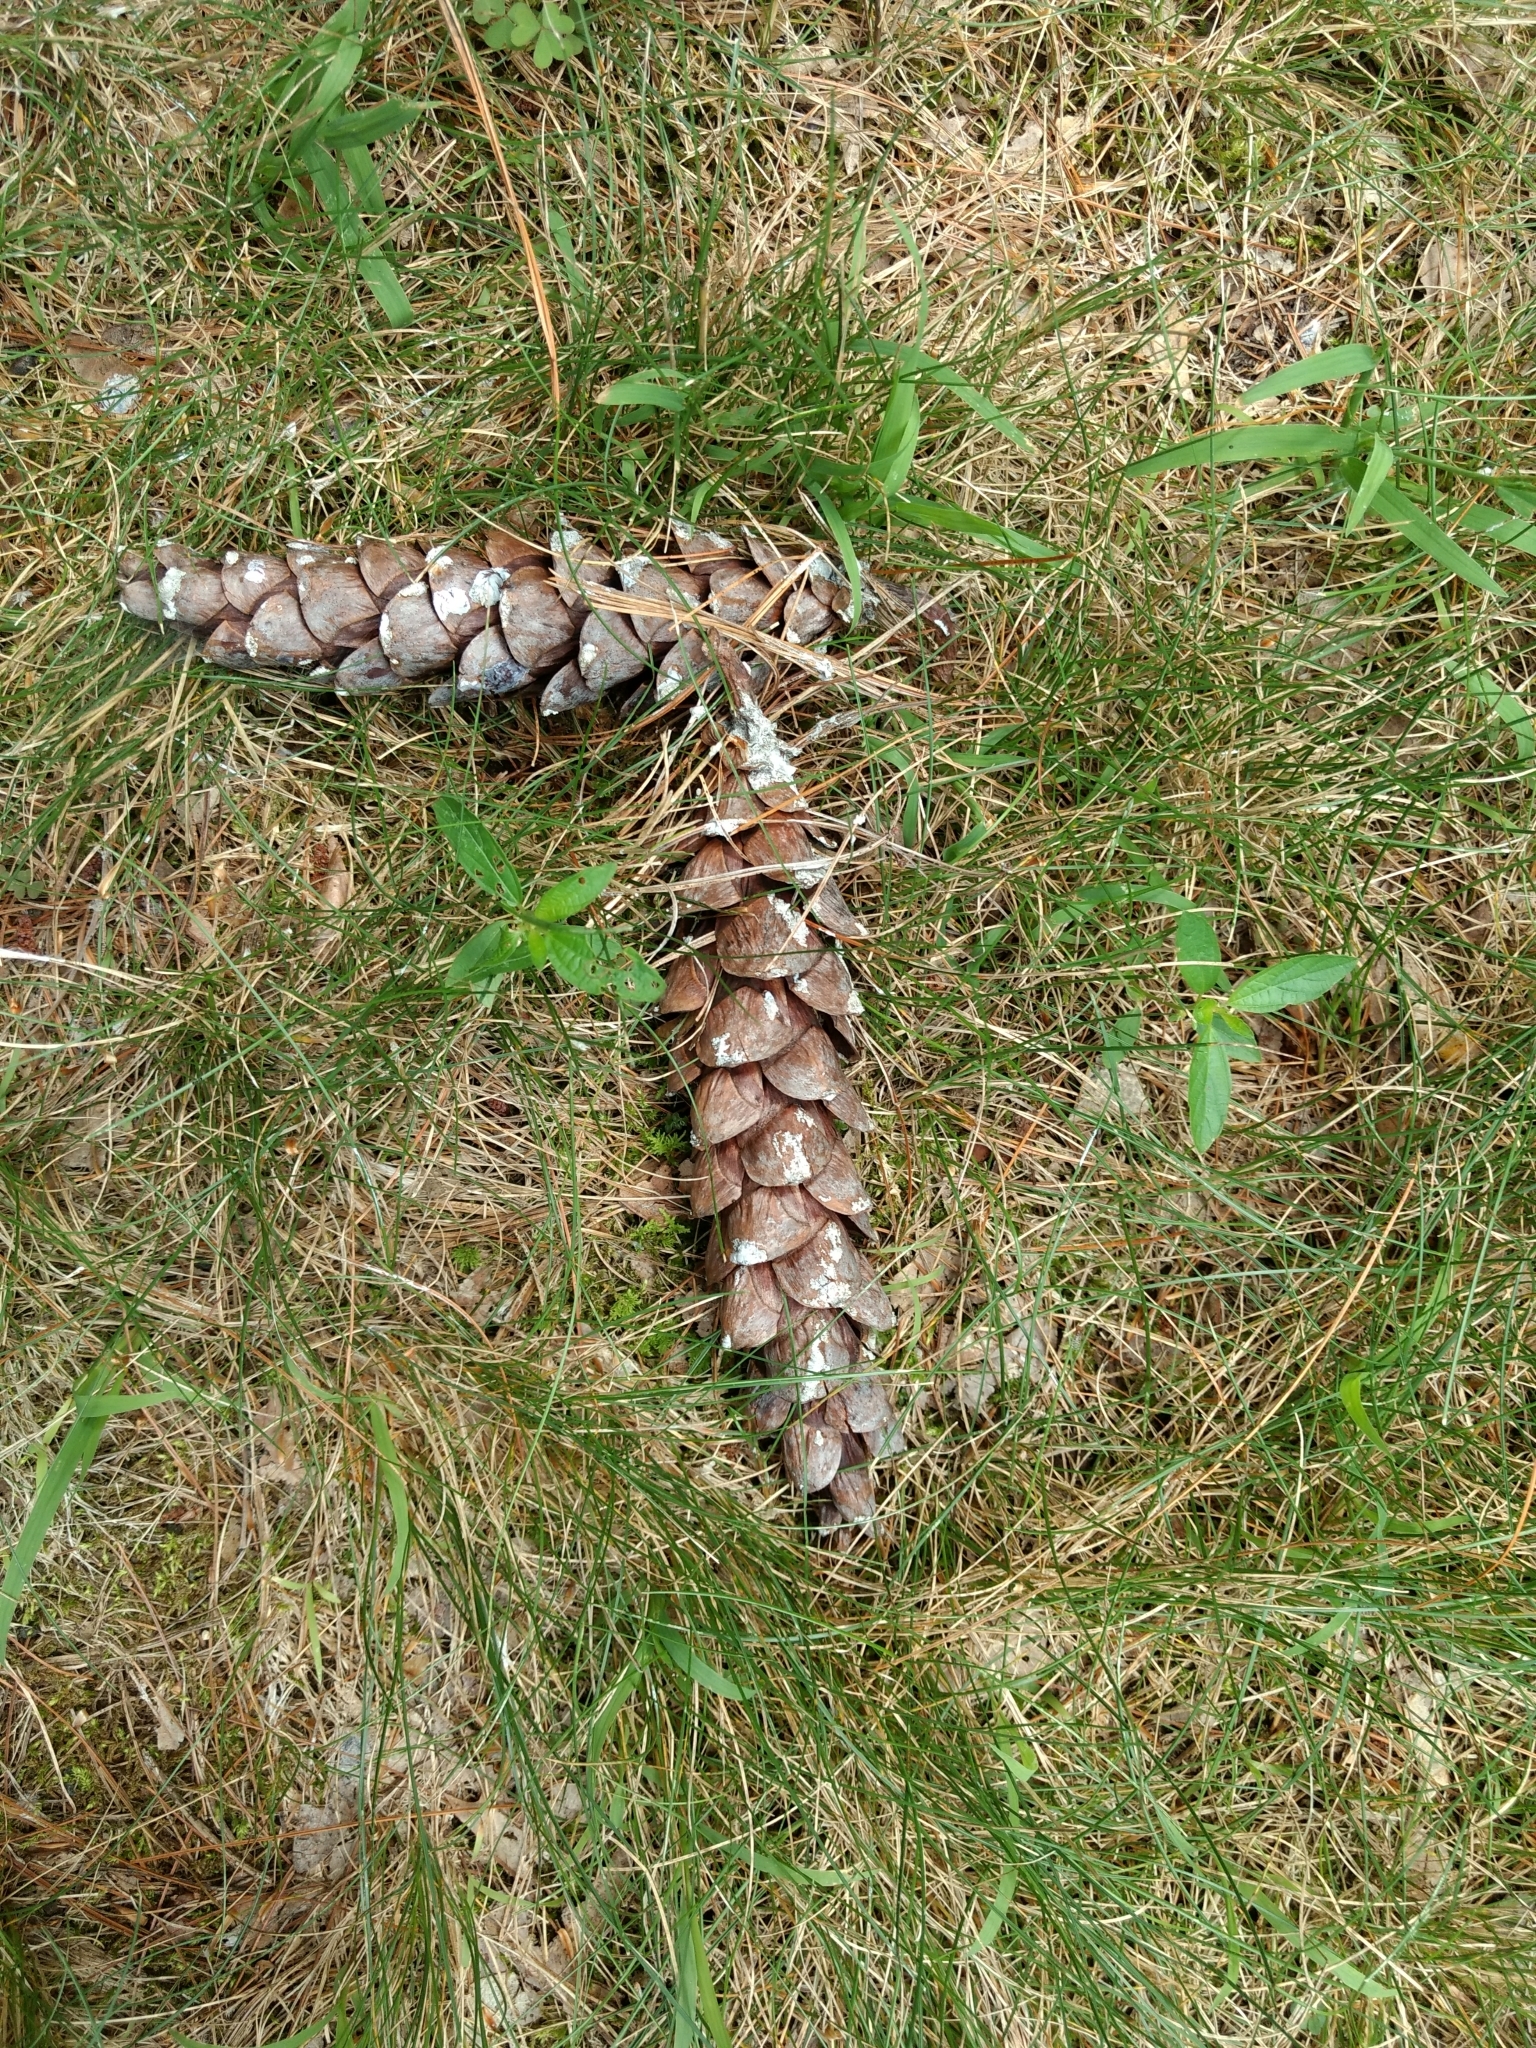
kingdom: Plantae
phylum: Tracheophyta
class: Pinopsida
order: Pinales
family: Pinaceae
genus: Pinus
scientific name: Pinus strobus
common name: Weymouth pine
